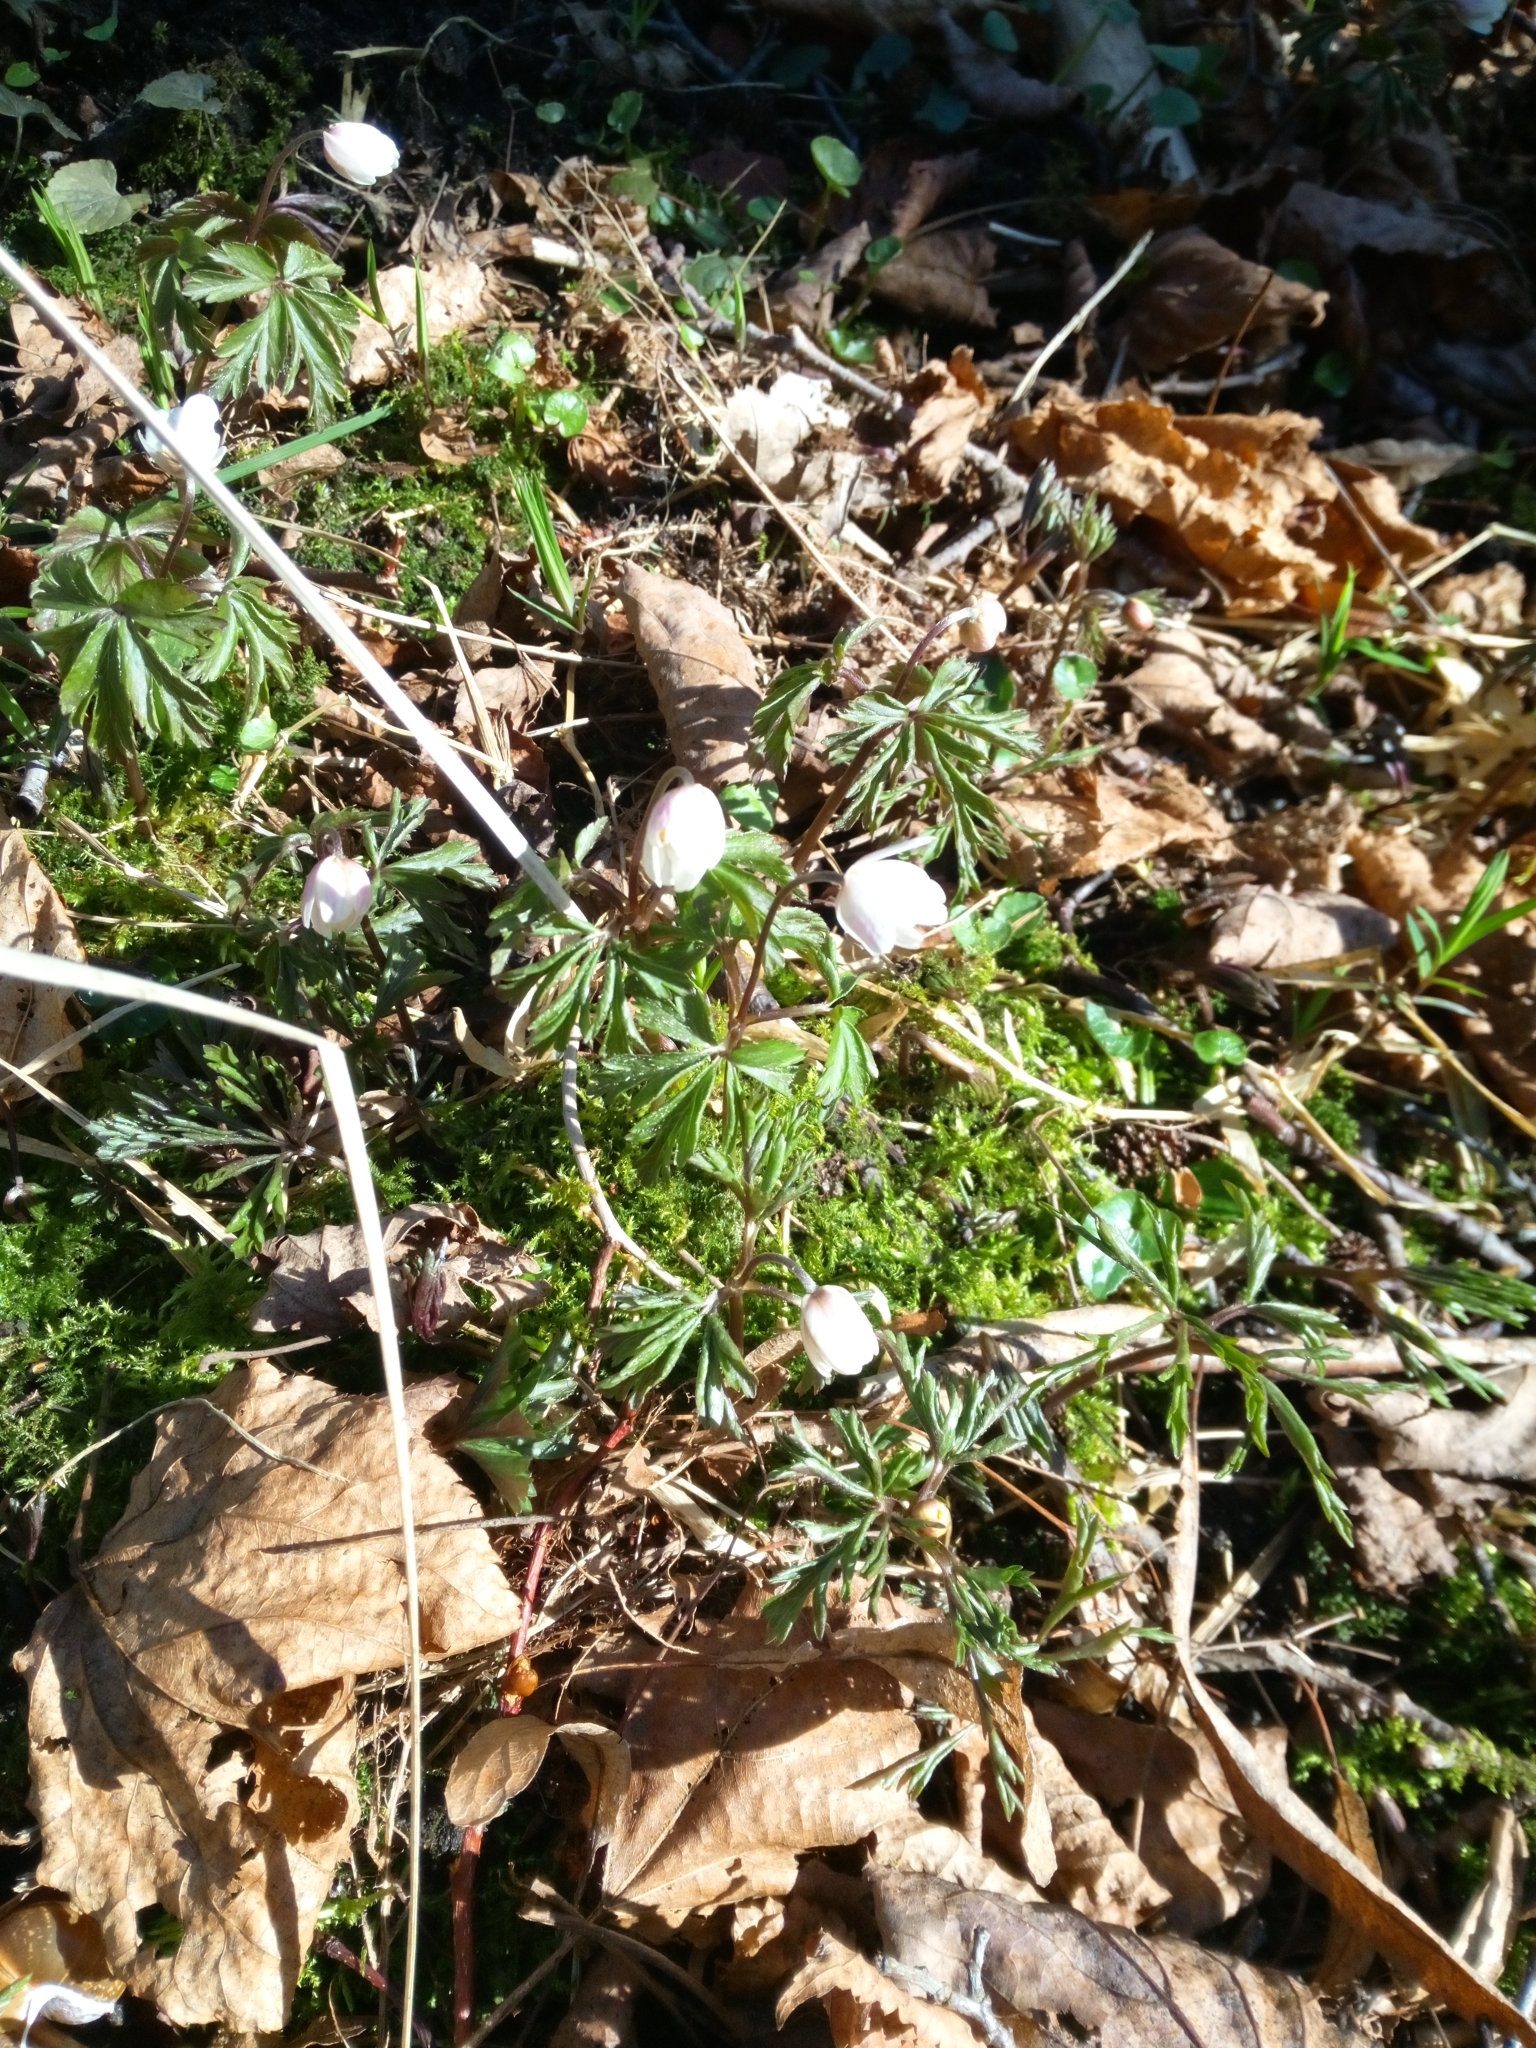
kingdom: Plantae
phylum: Tracheophyta
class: Magnoliopsida
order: Ranunculales
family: Ranunculaceae
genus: Anemone
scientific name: Anemone nemorosa
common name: Wood anemone
